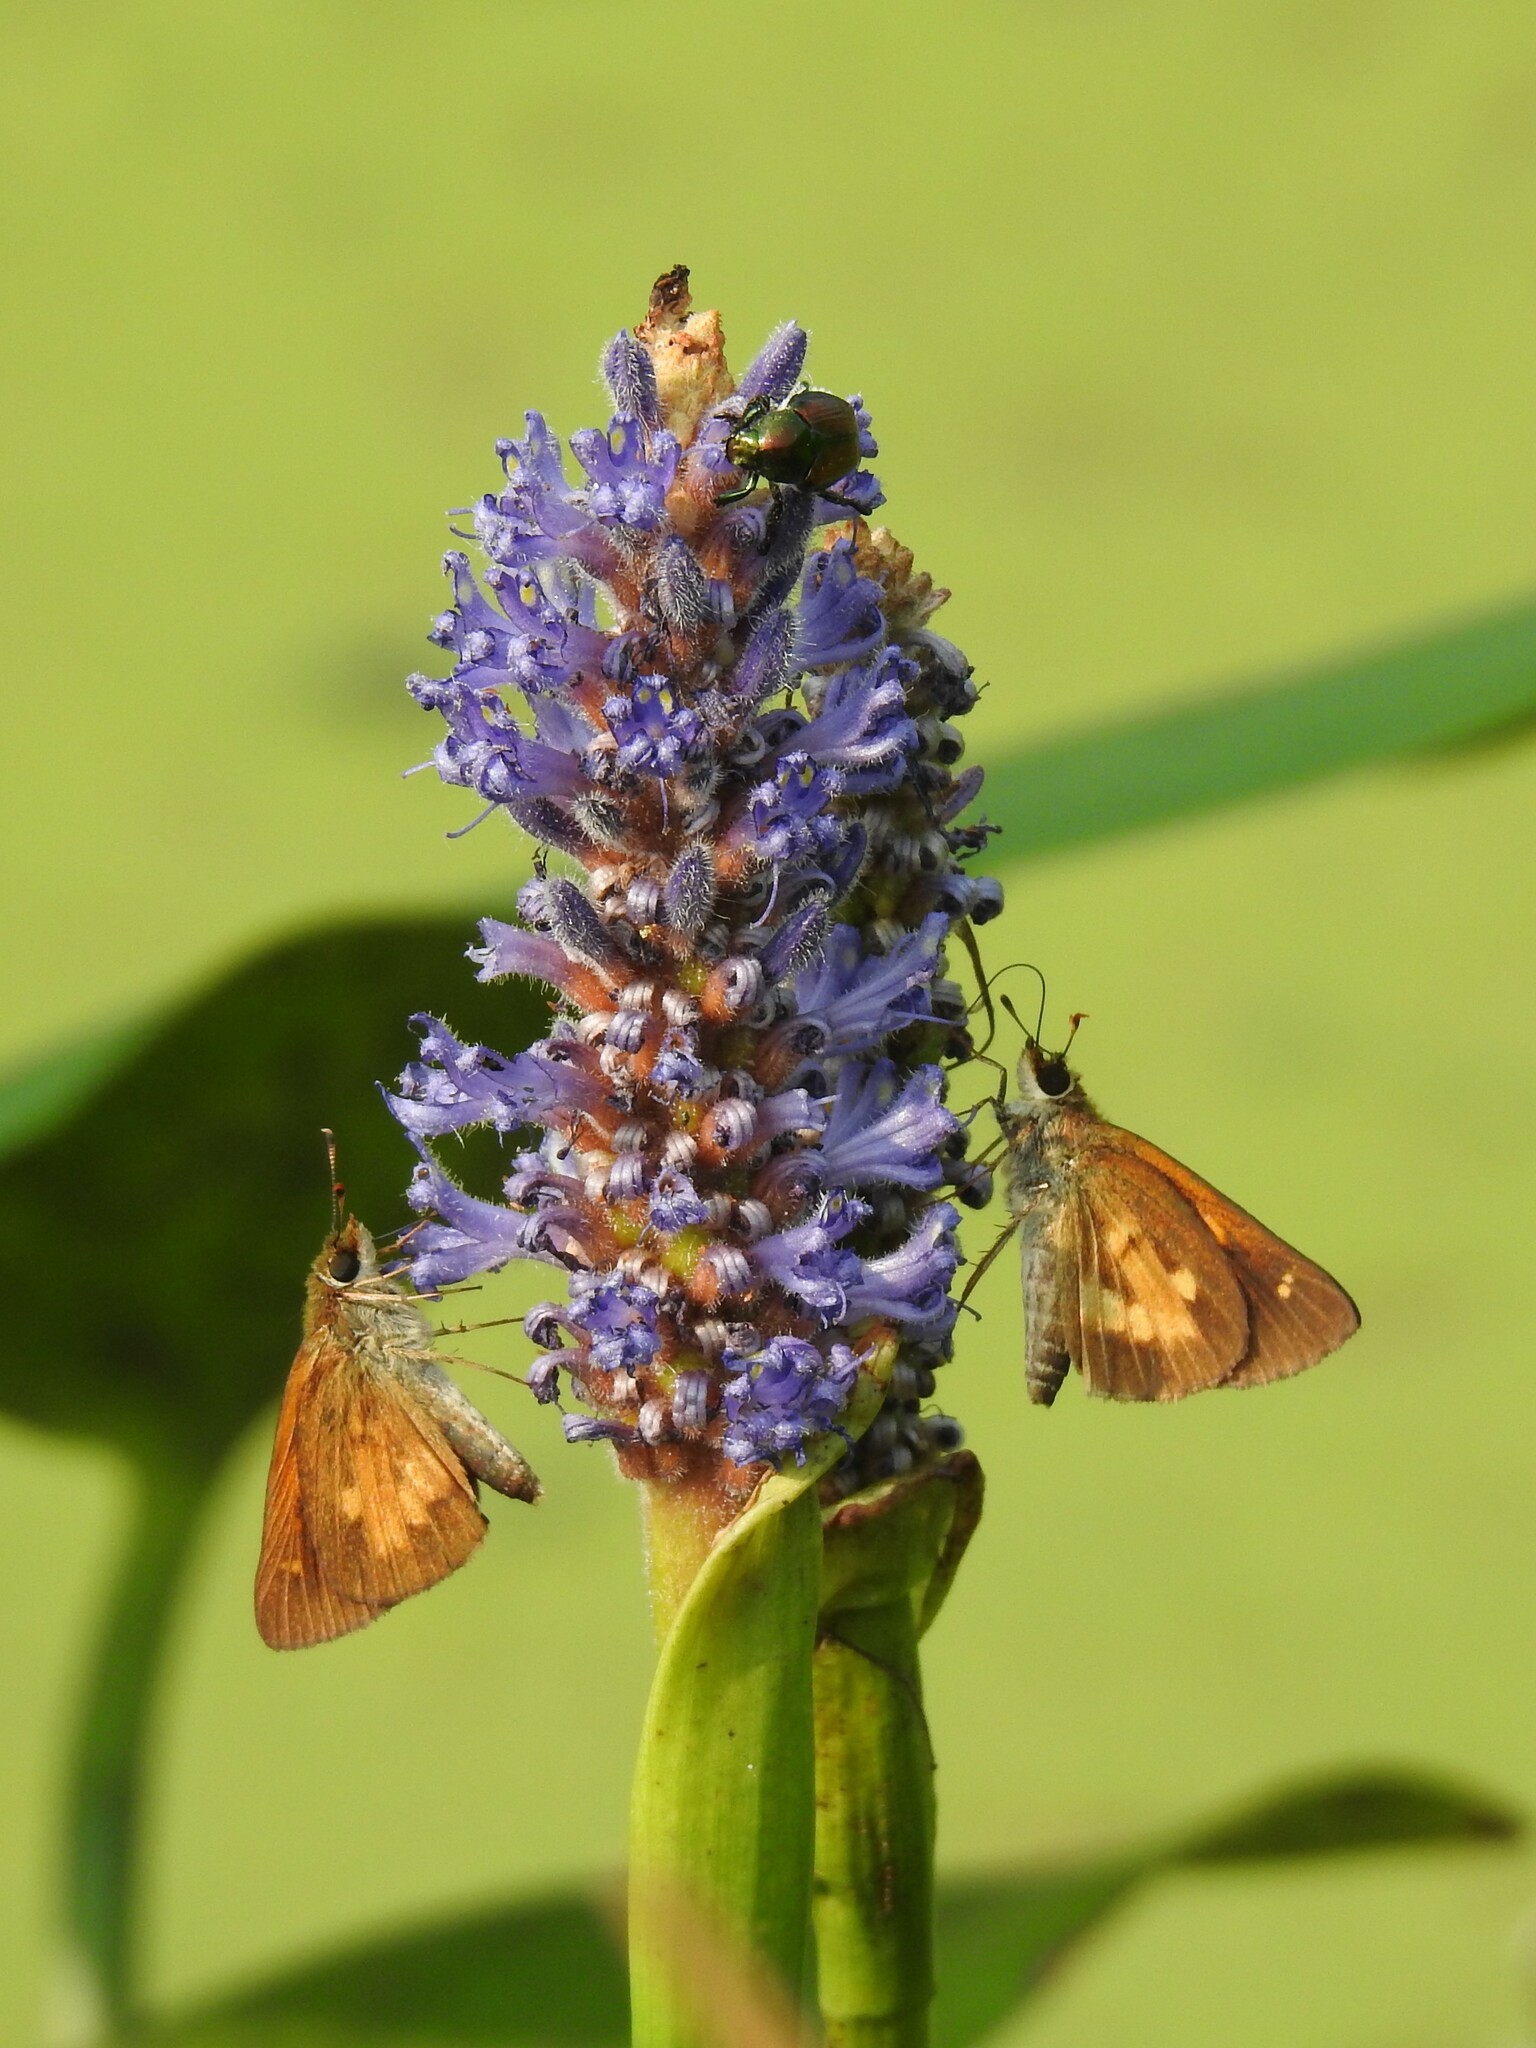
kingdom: Animalia
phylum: Arthropoda
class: Insecta
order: Lepidoptera
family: Hesperiidae
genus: Poanes
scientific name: Poanes viator
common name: Broad-winged skipper
